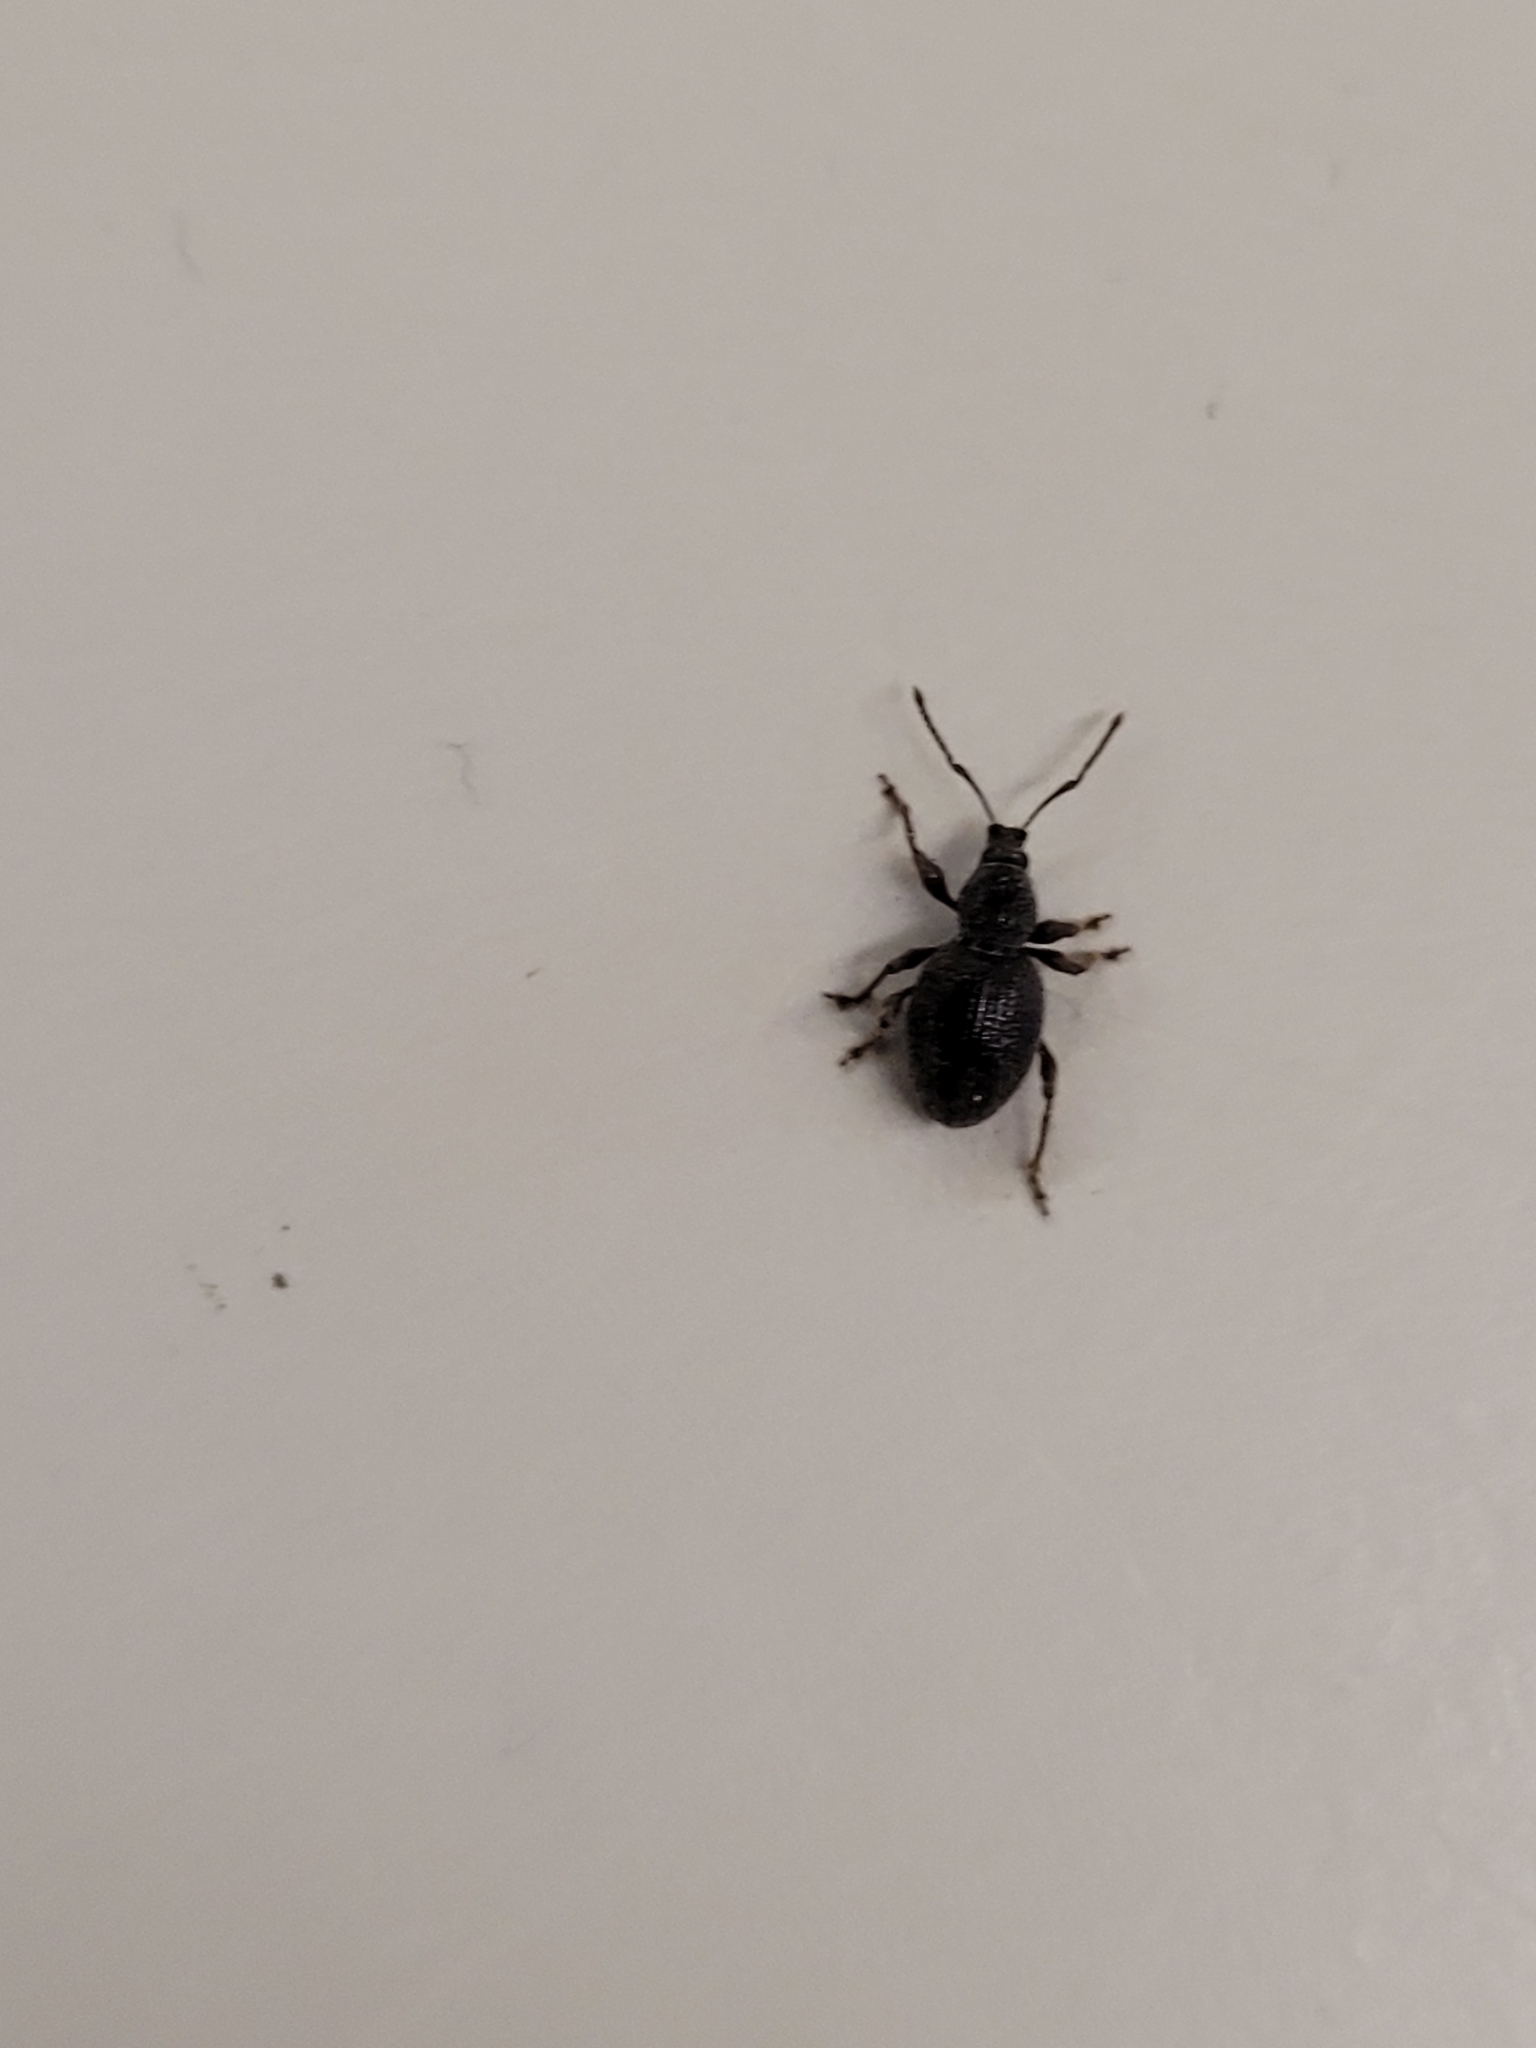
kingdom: Animalia
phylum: Arthropoda
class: Insecta
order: Coleoptera
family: Curculionidae
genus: Otiorhynchus
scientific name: Otiorhynchus rugosostriatus
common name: Weevil
